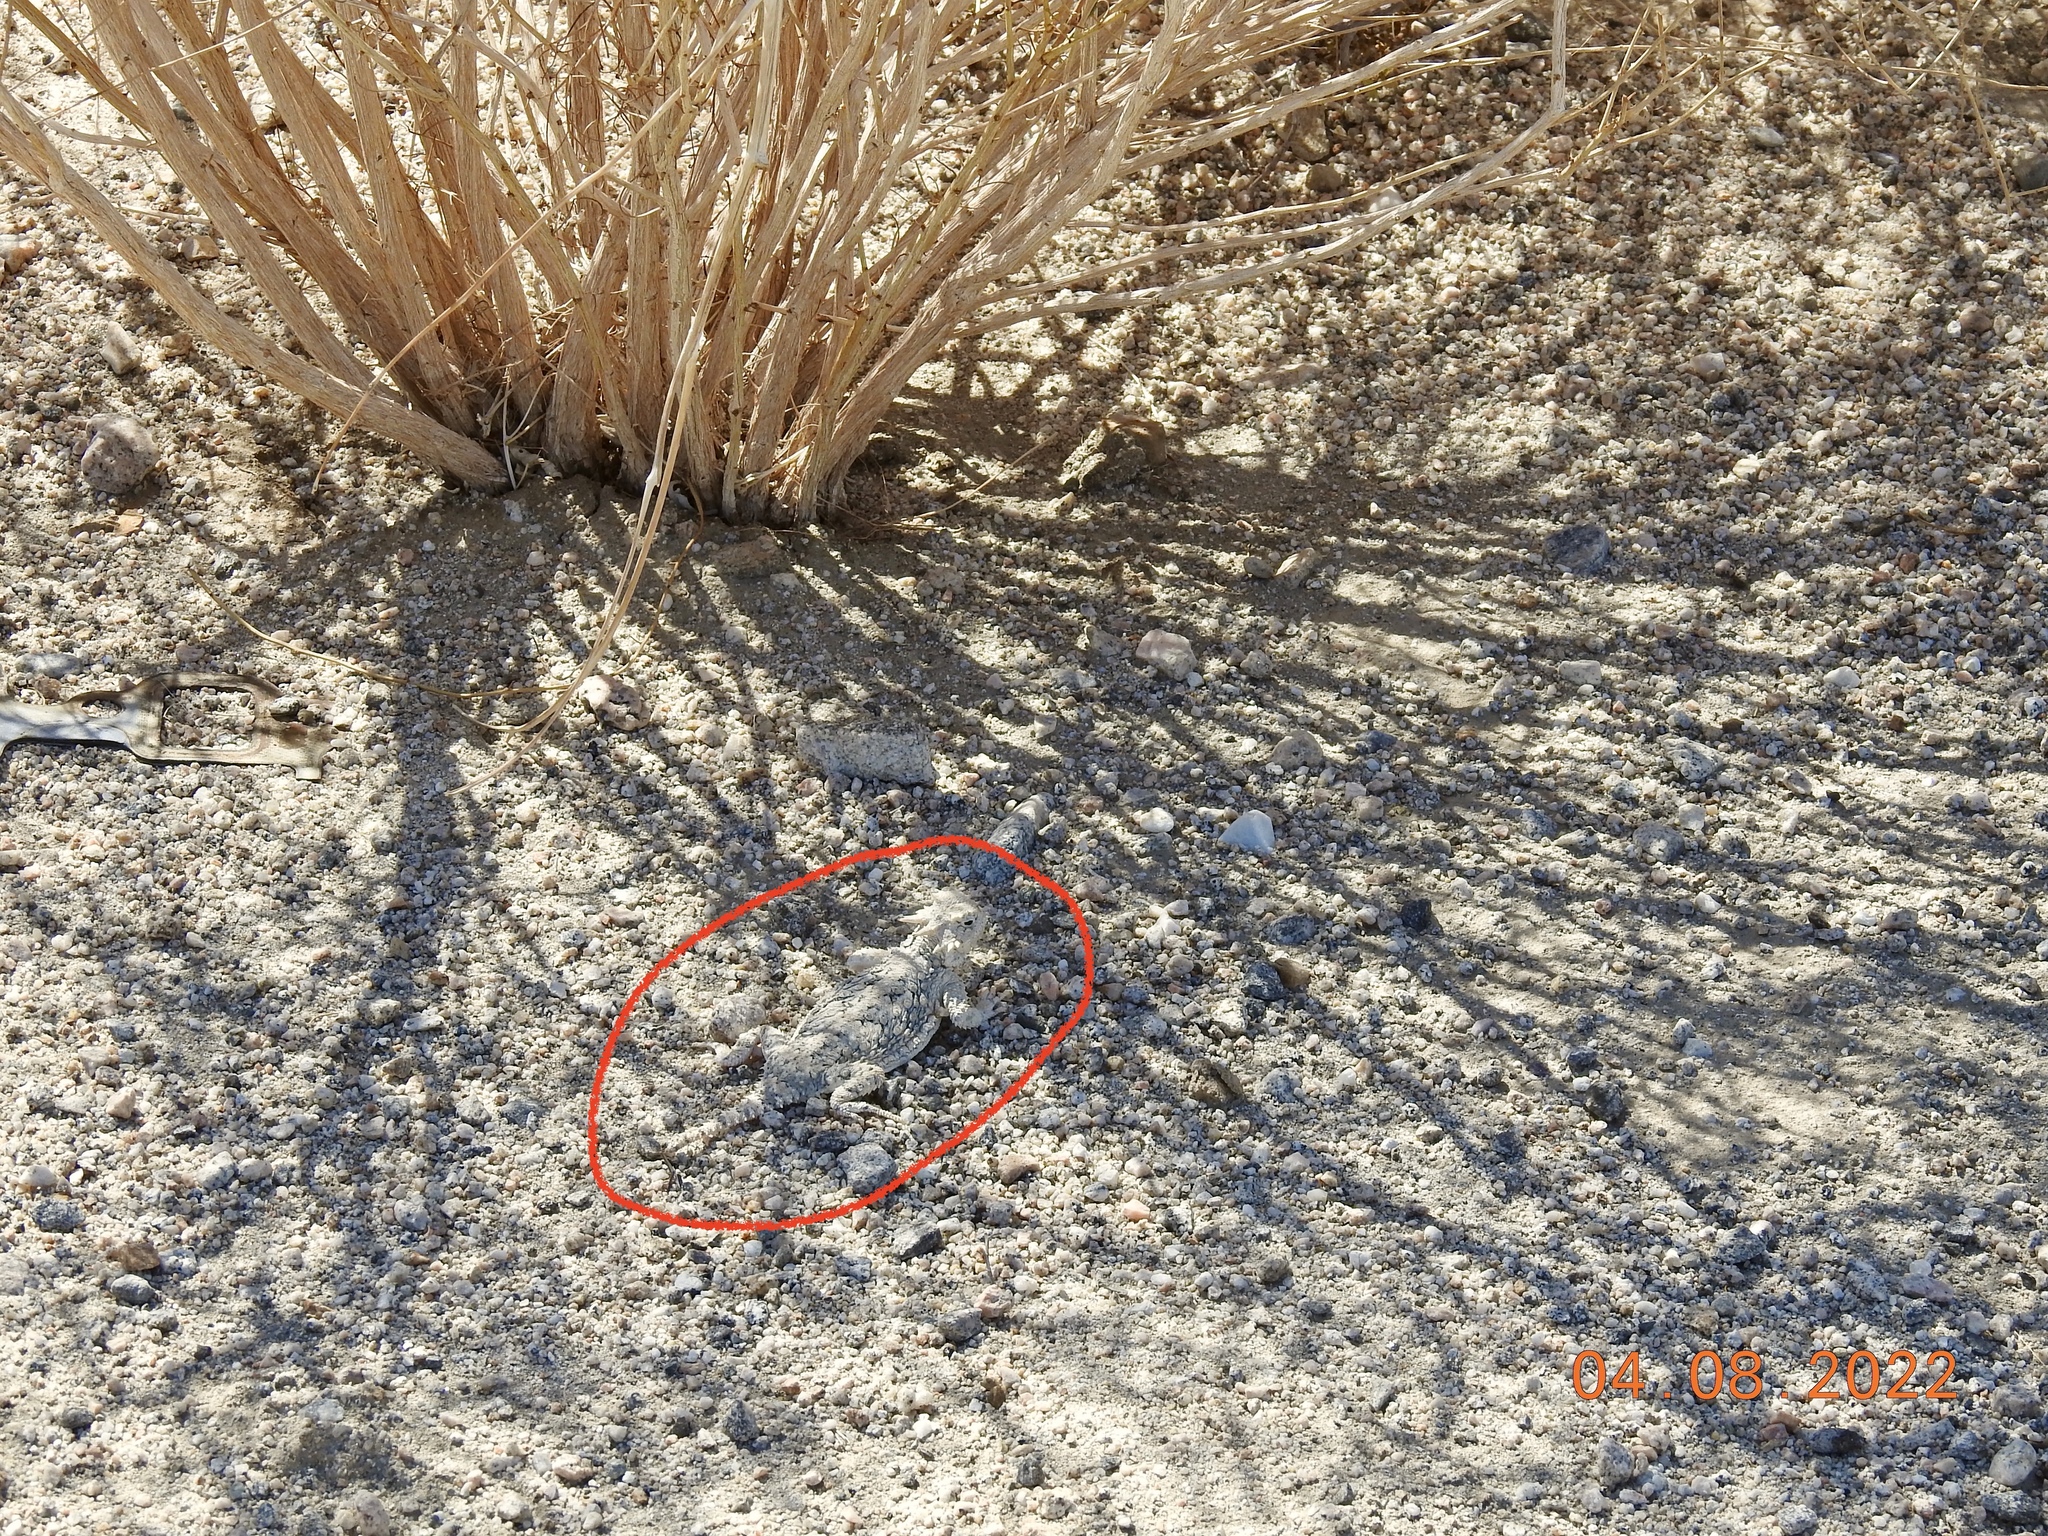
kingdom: Animalia
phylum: Chordata
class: Squamata
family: Phrynosomatidae
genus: Phrynosoma
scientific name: Phrynosoma platyrhinos
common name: Desert horned lizard
